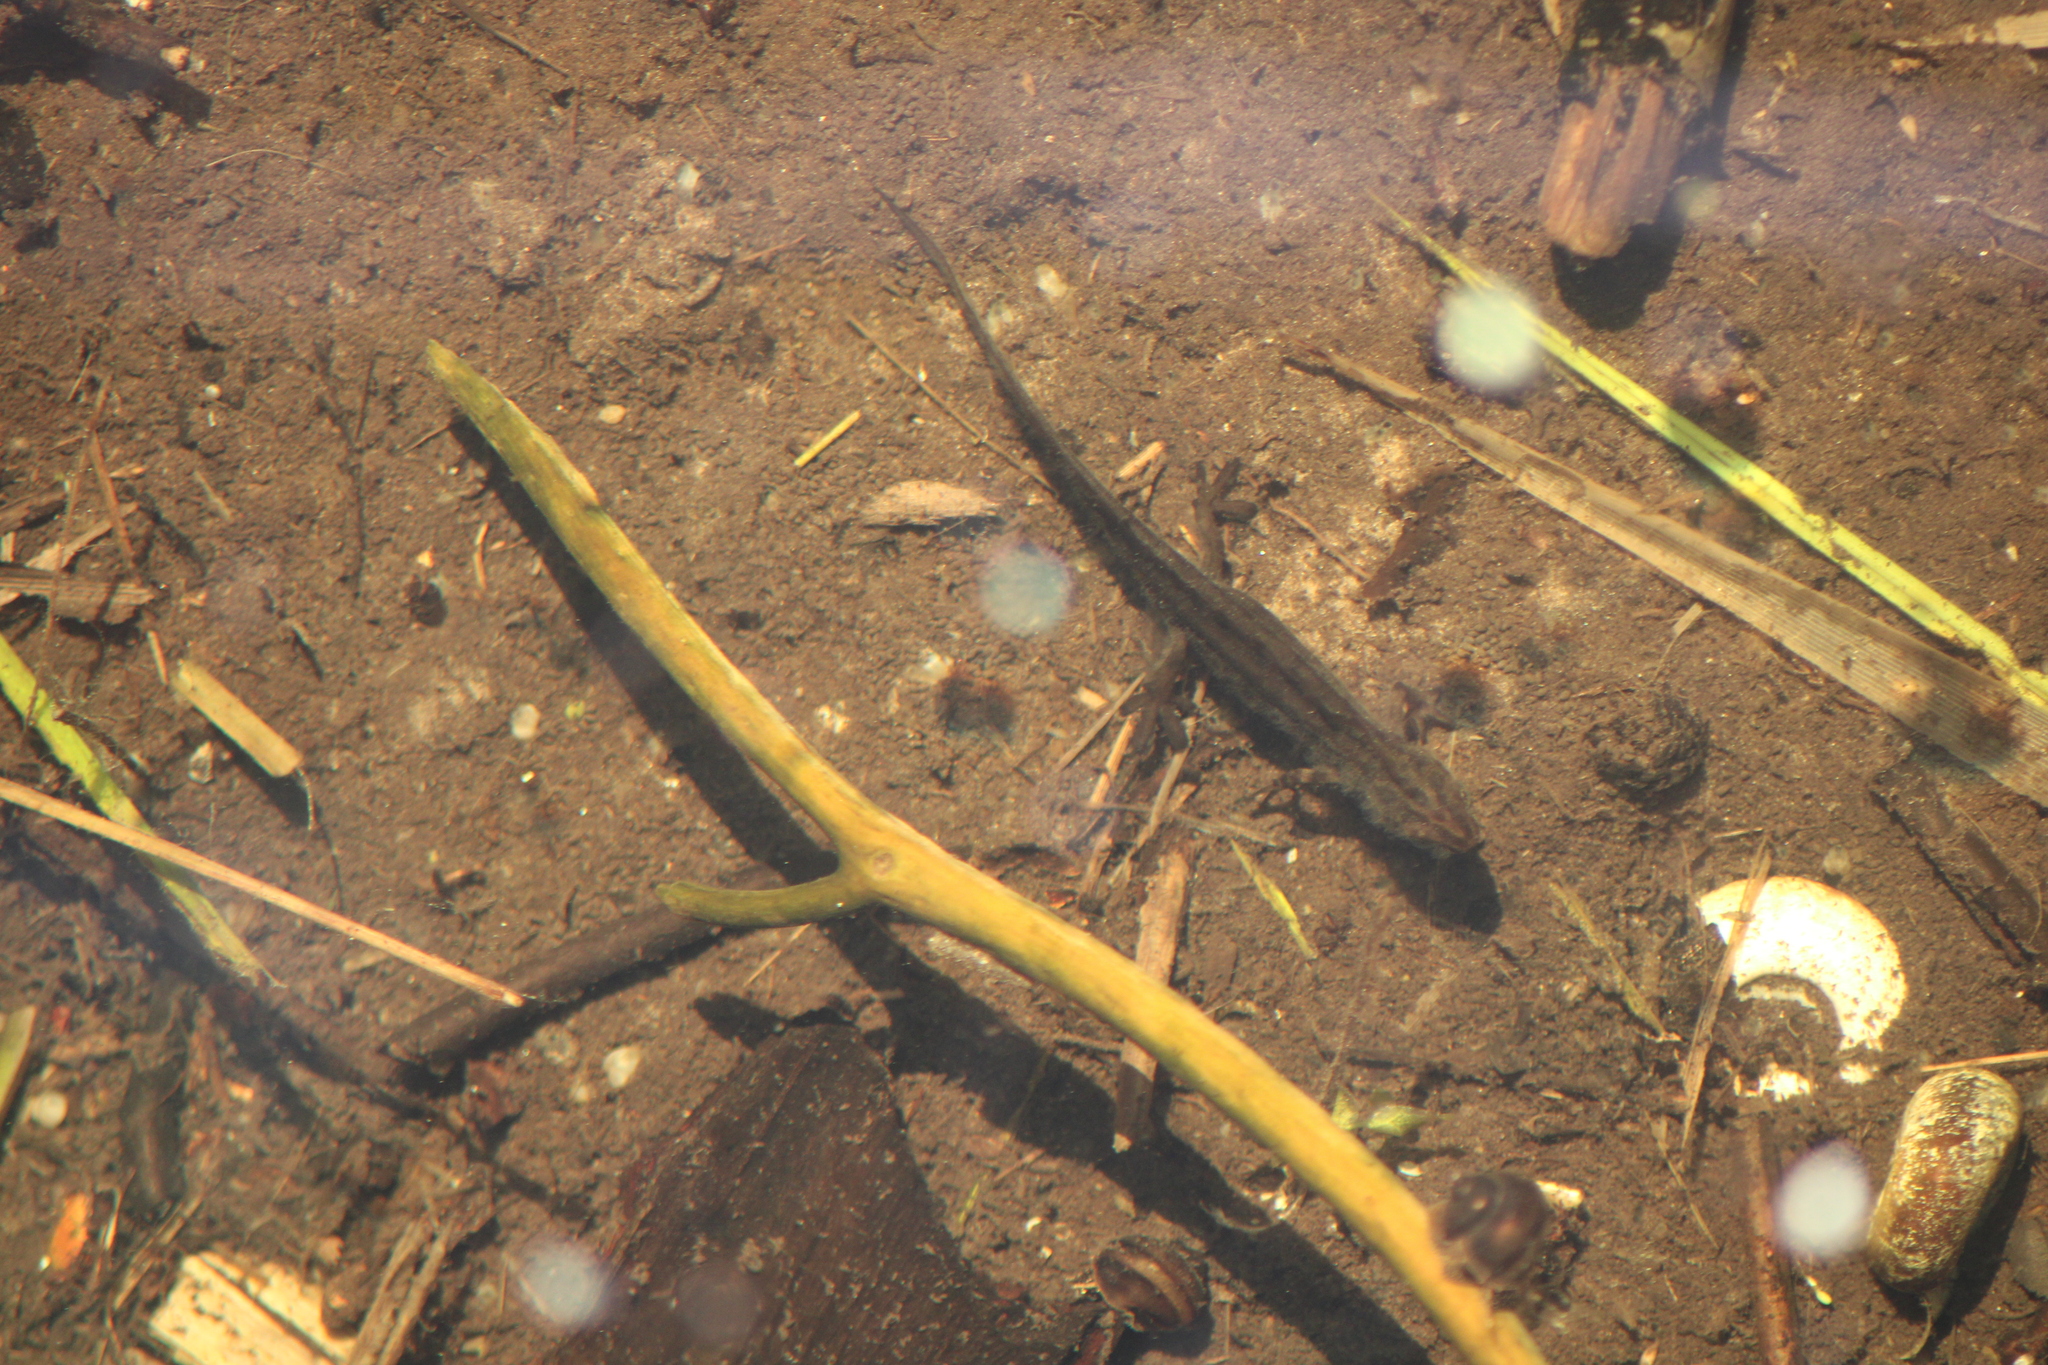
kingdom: Animalia
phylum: Chordata
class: Amphibia
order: Caudata
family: Salamandridae
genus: Lissotriton
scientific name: Lissotriton vulgaris
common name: Smooth newt
